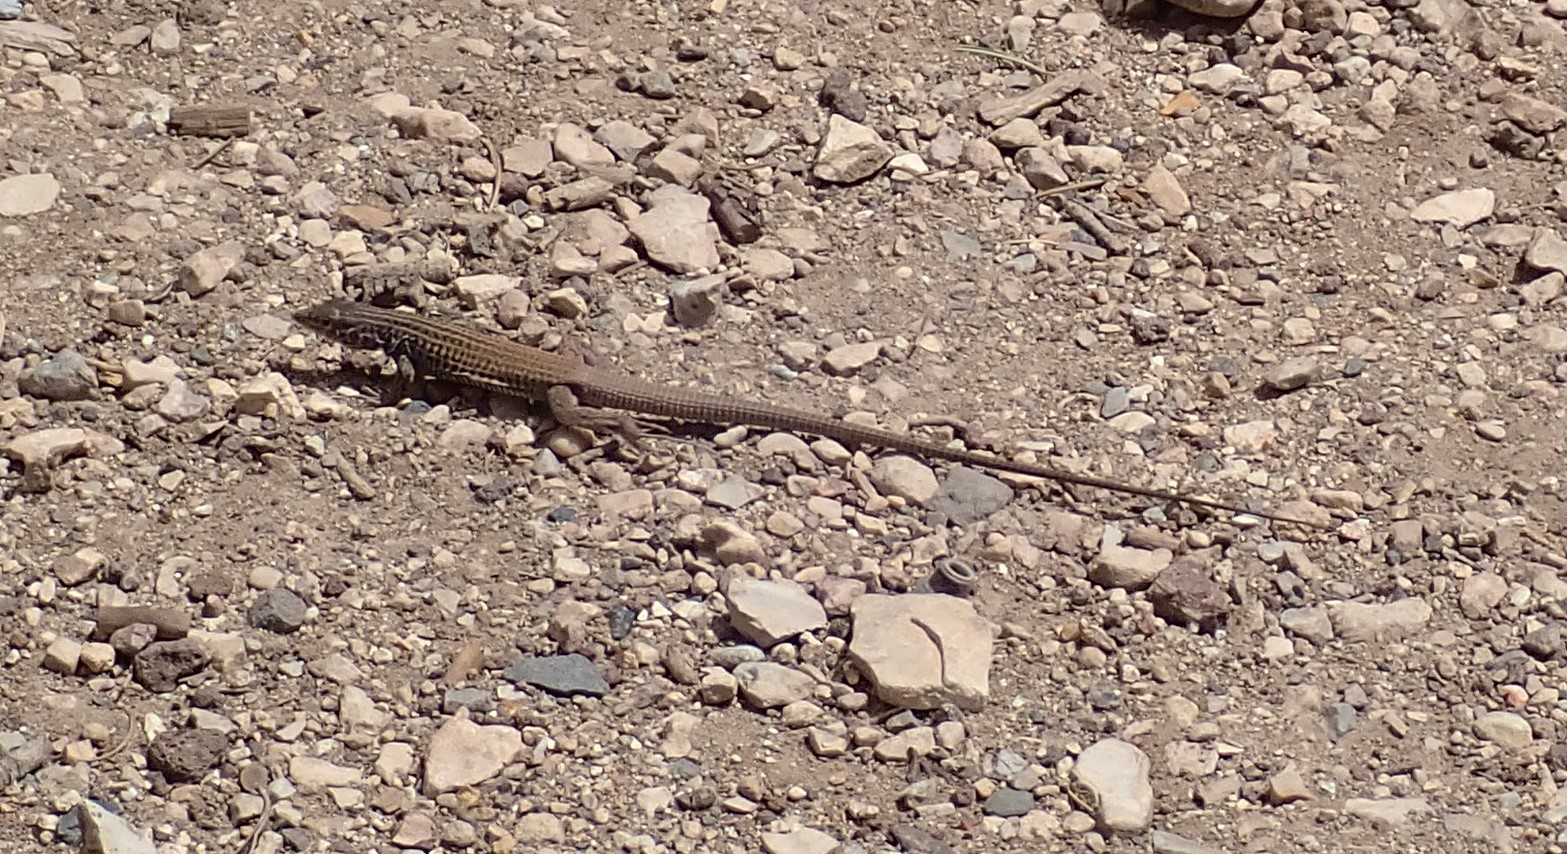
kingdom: Animalia
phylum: Chordata
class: Squamata
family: Teiidae
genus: Aspidoscelis
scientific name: Aspidoscelis tigris
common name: Tiger whiptail
